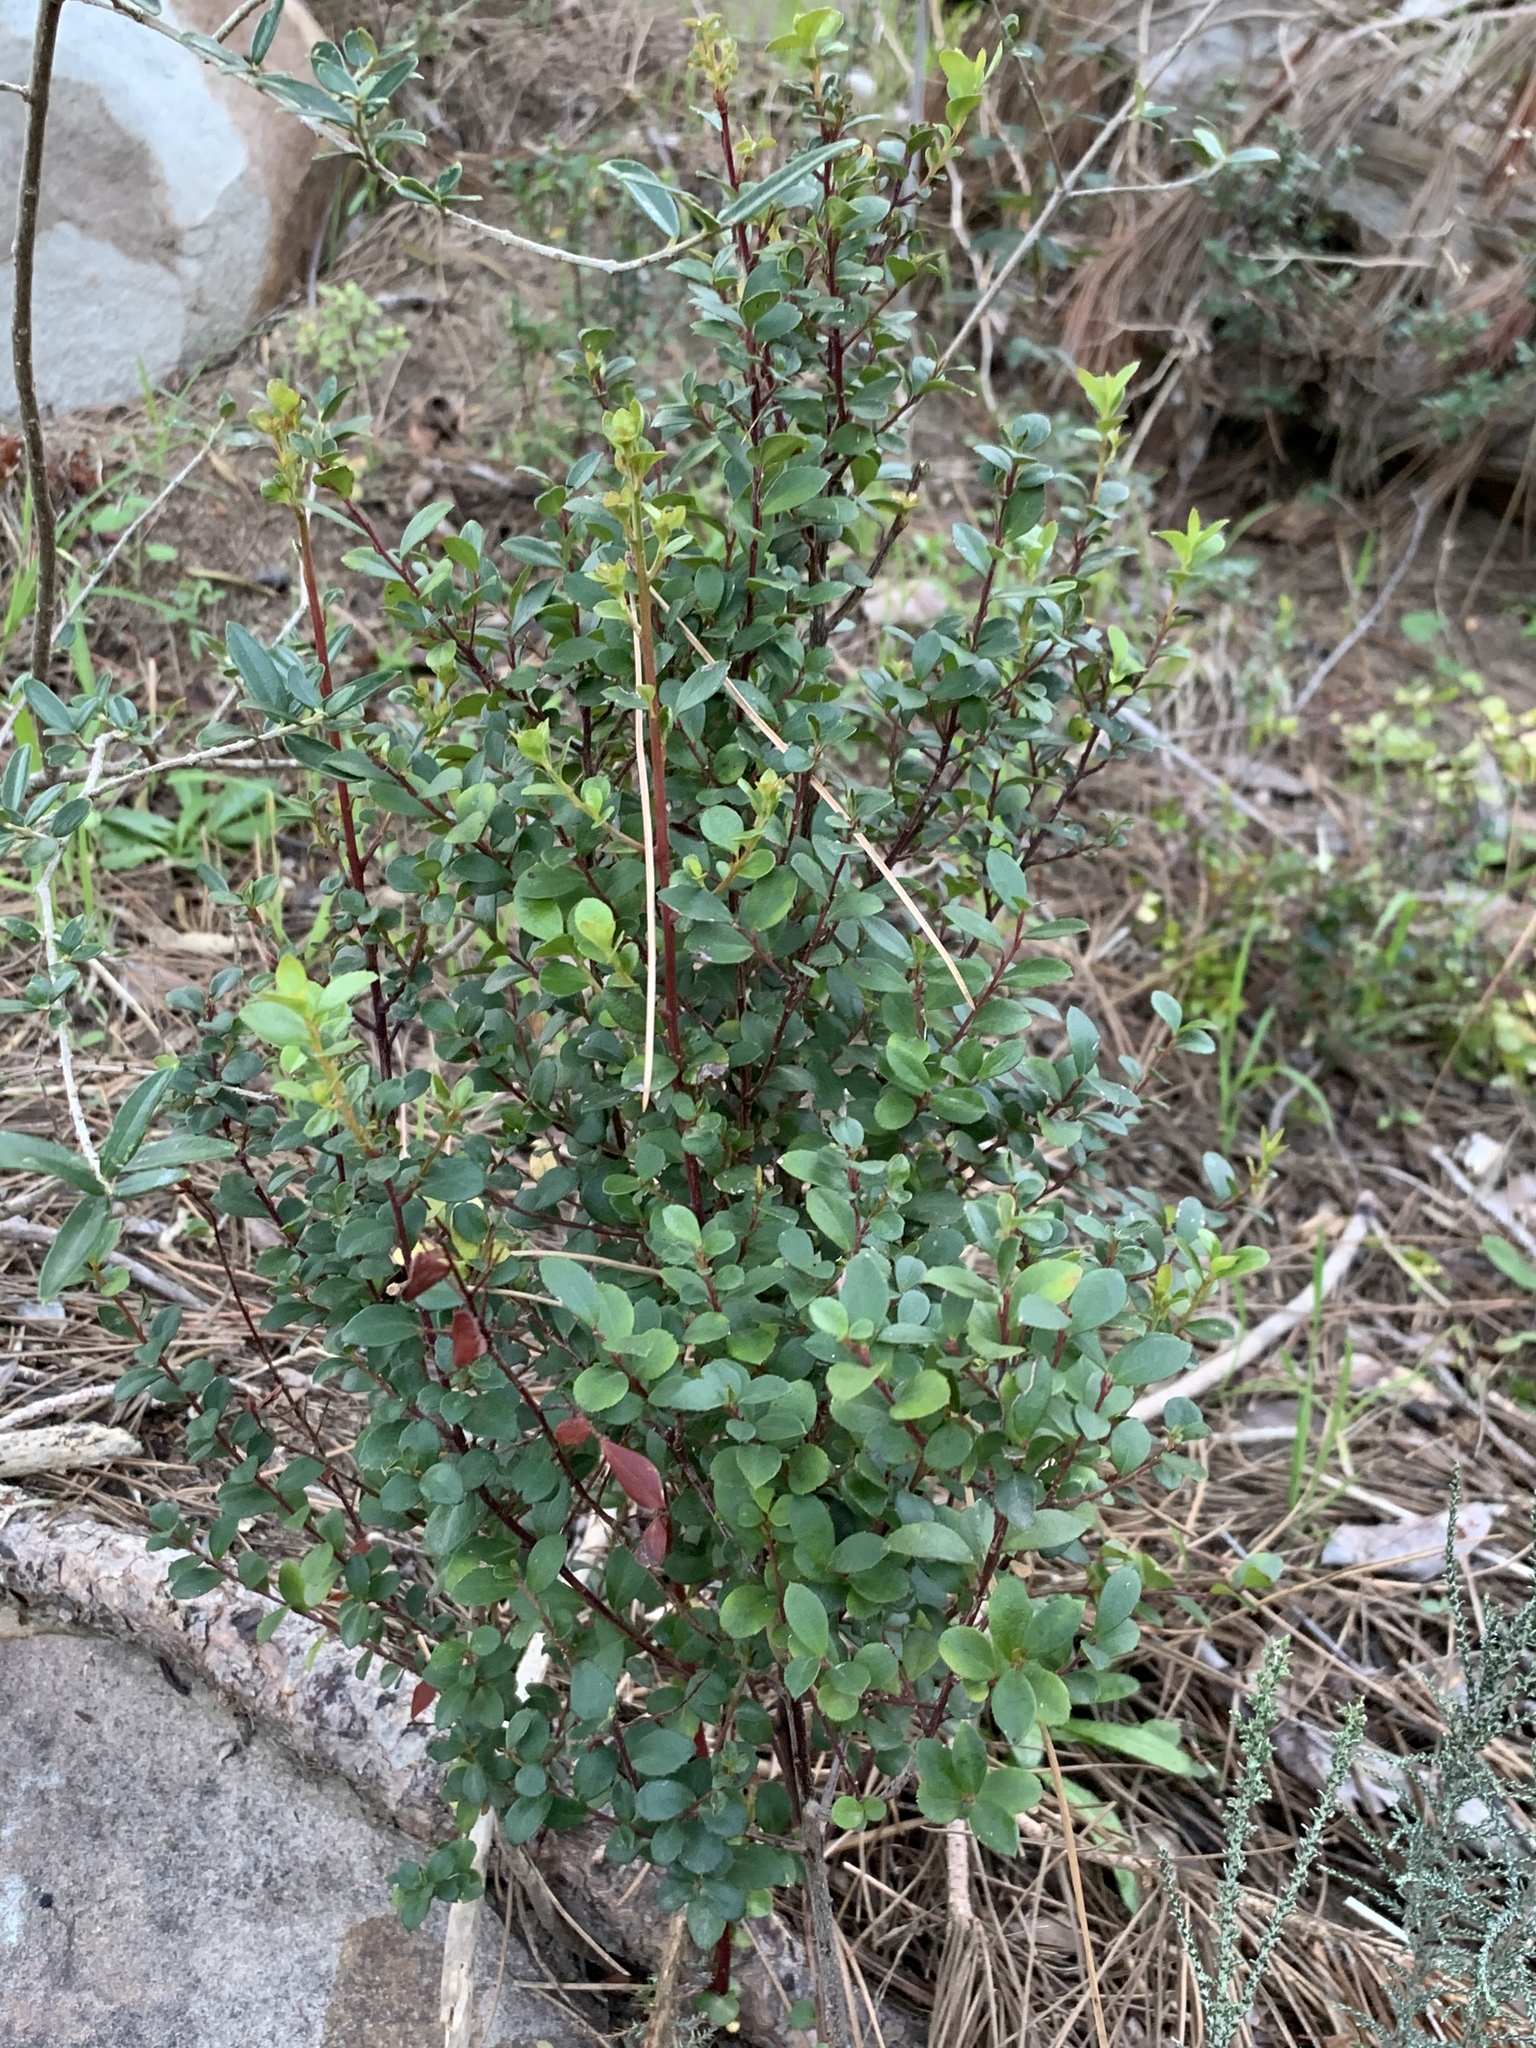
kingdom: Plantae
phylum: Tracheophyta
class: Magnoliopsida
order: Ericales
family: Primulaceae
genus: Myrsine
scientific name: Myrsine africana
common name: African-boxwood
